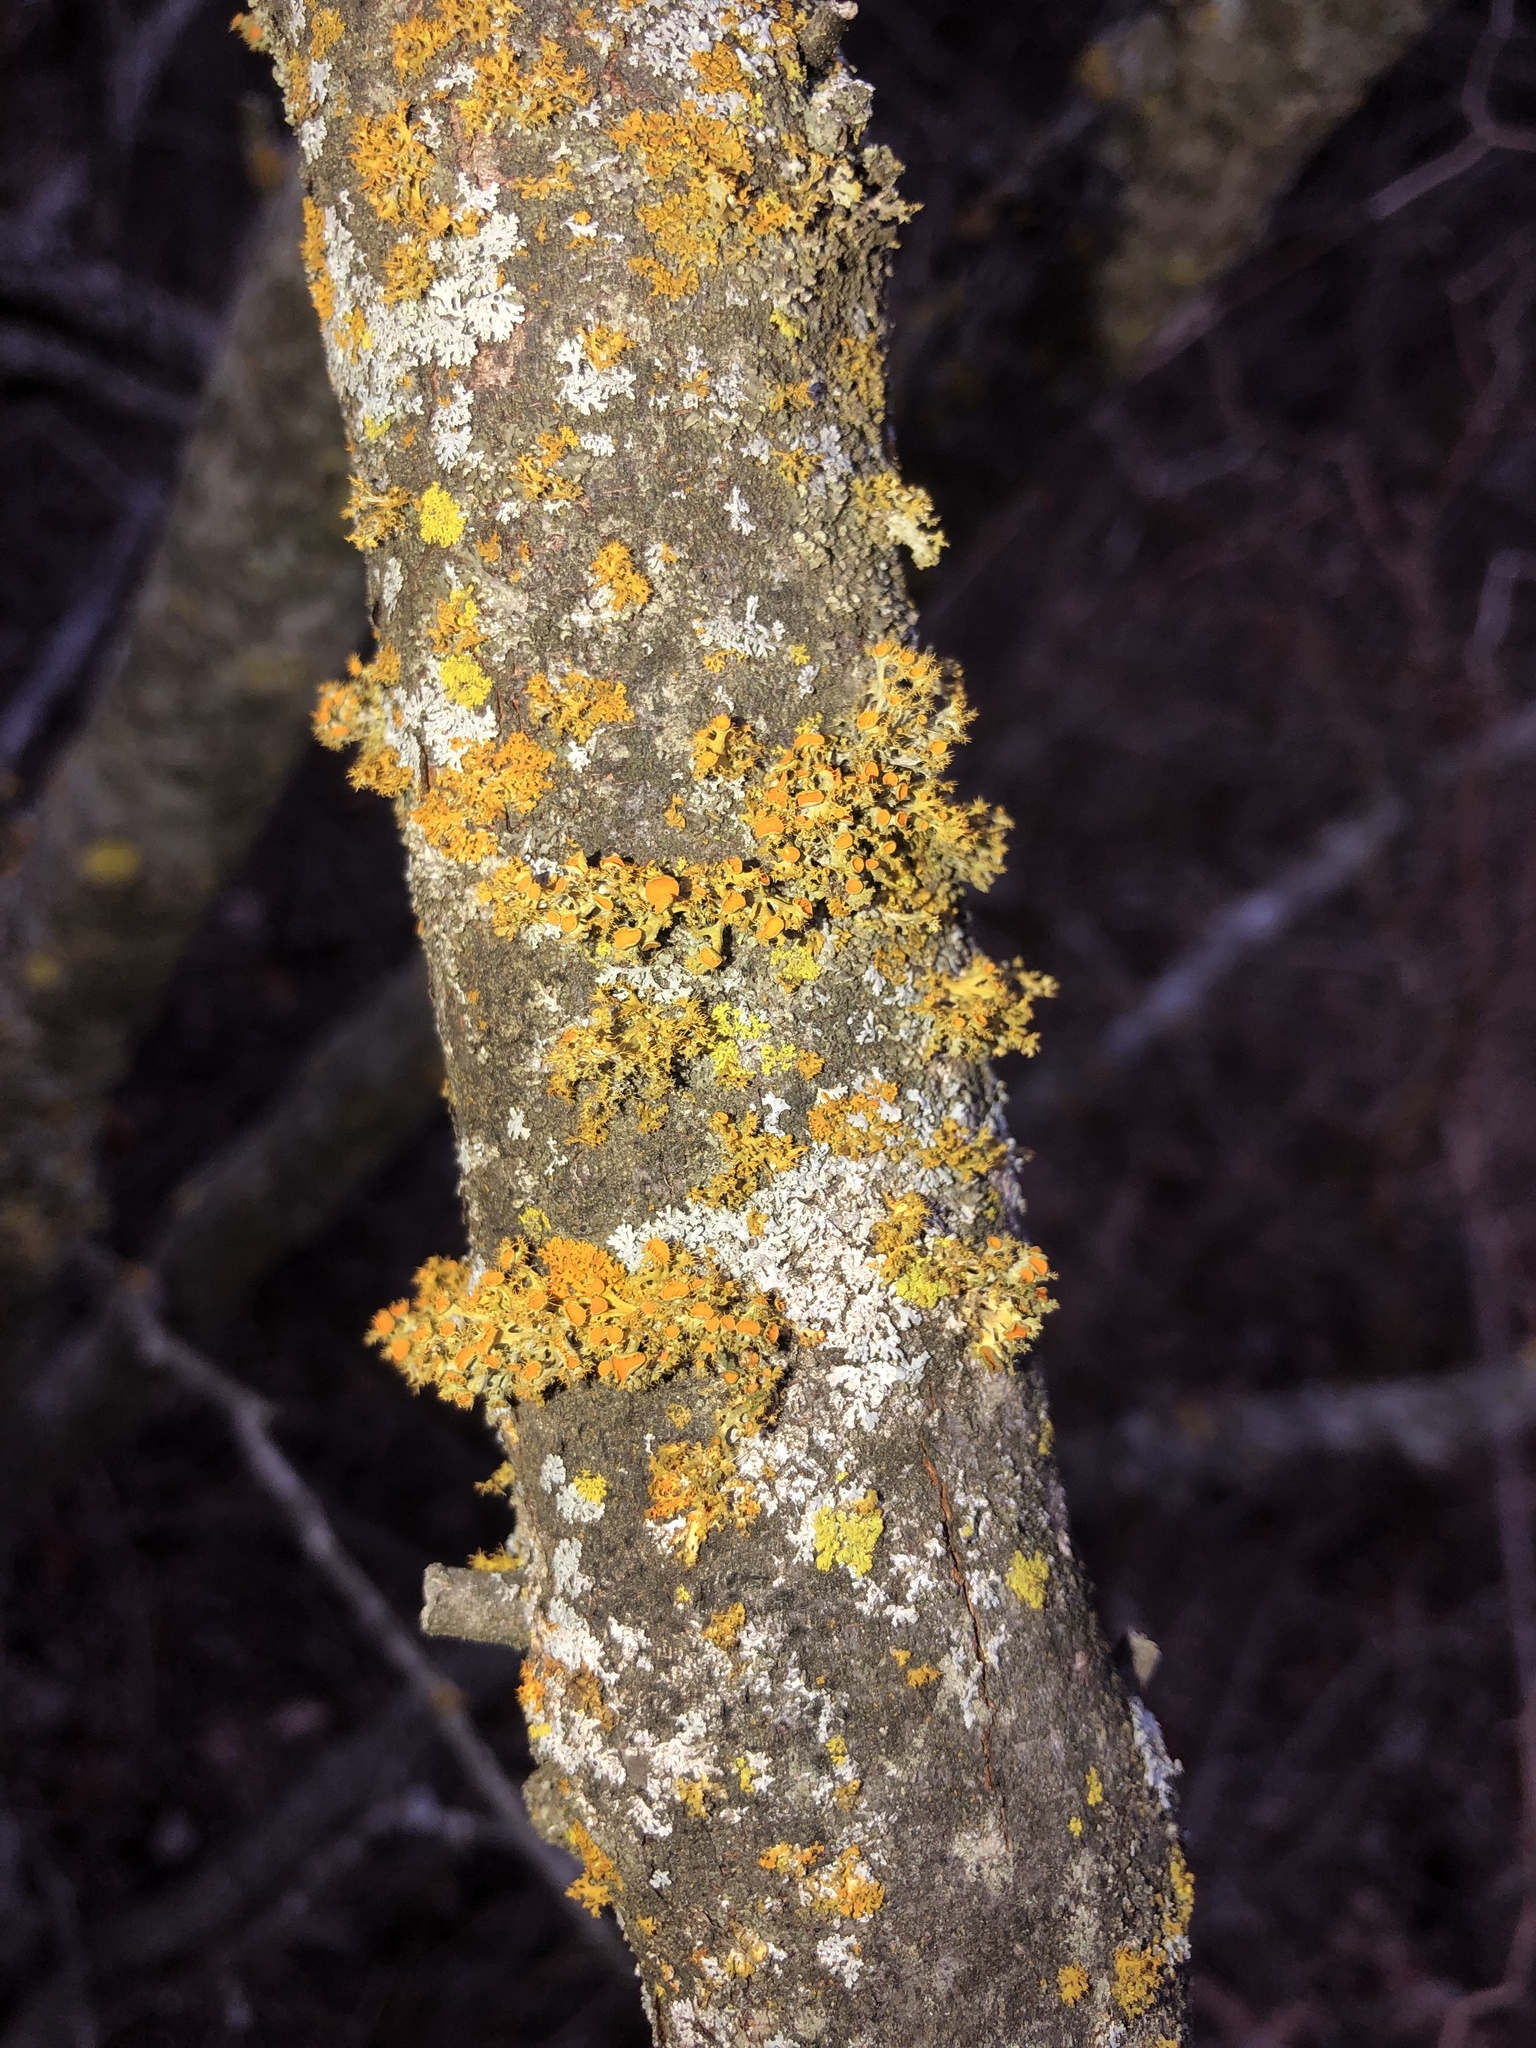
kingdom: Fungi
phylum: Ascomycota
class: Lecanoromycetes
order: Teloschistales
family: Teloschistaceae
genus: Niorma
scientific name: Niorma chrysophthalma
